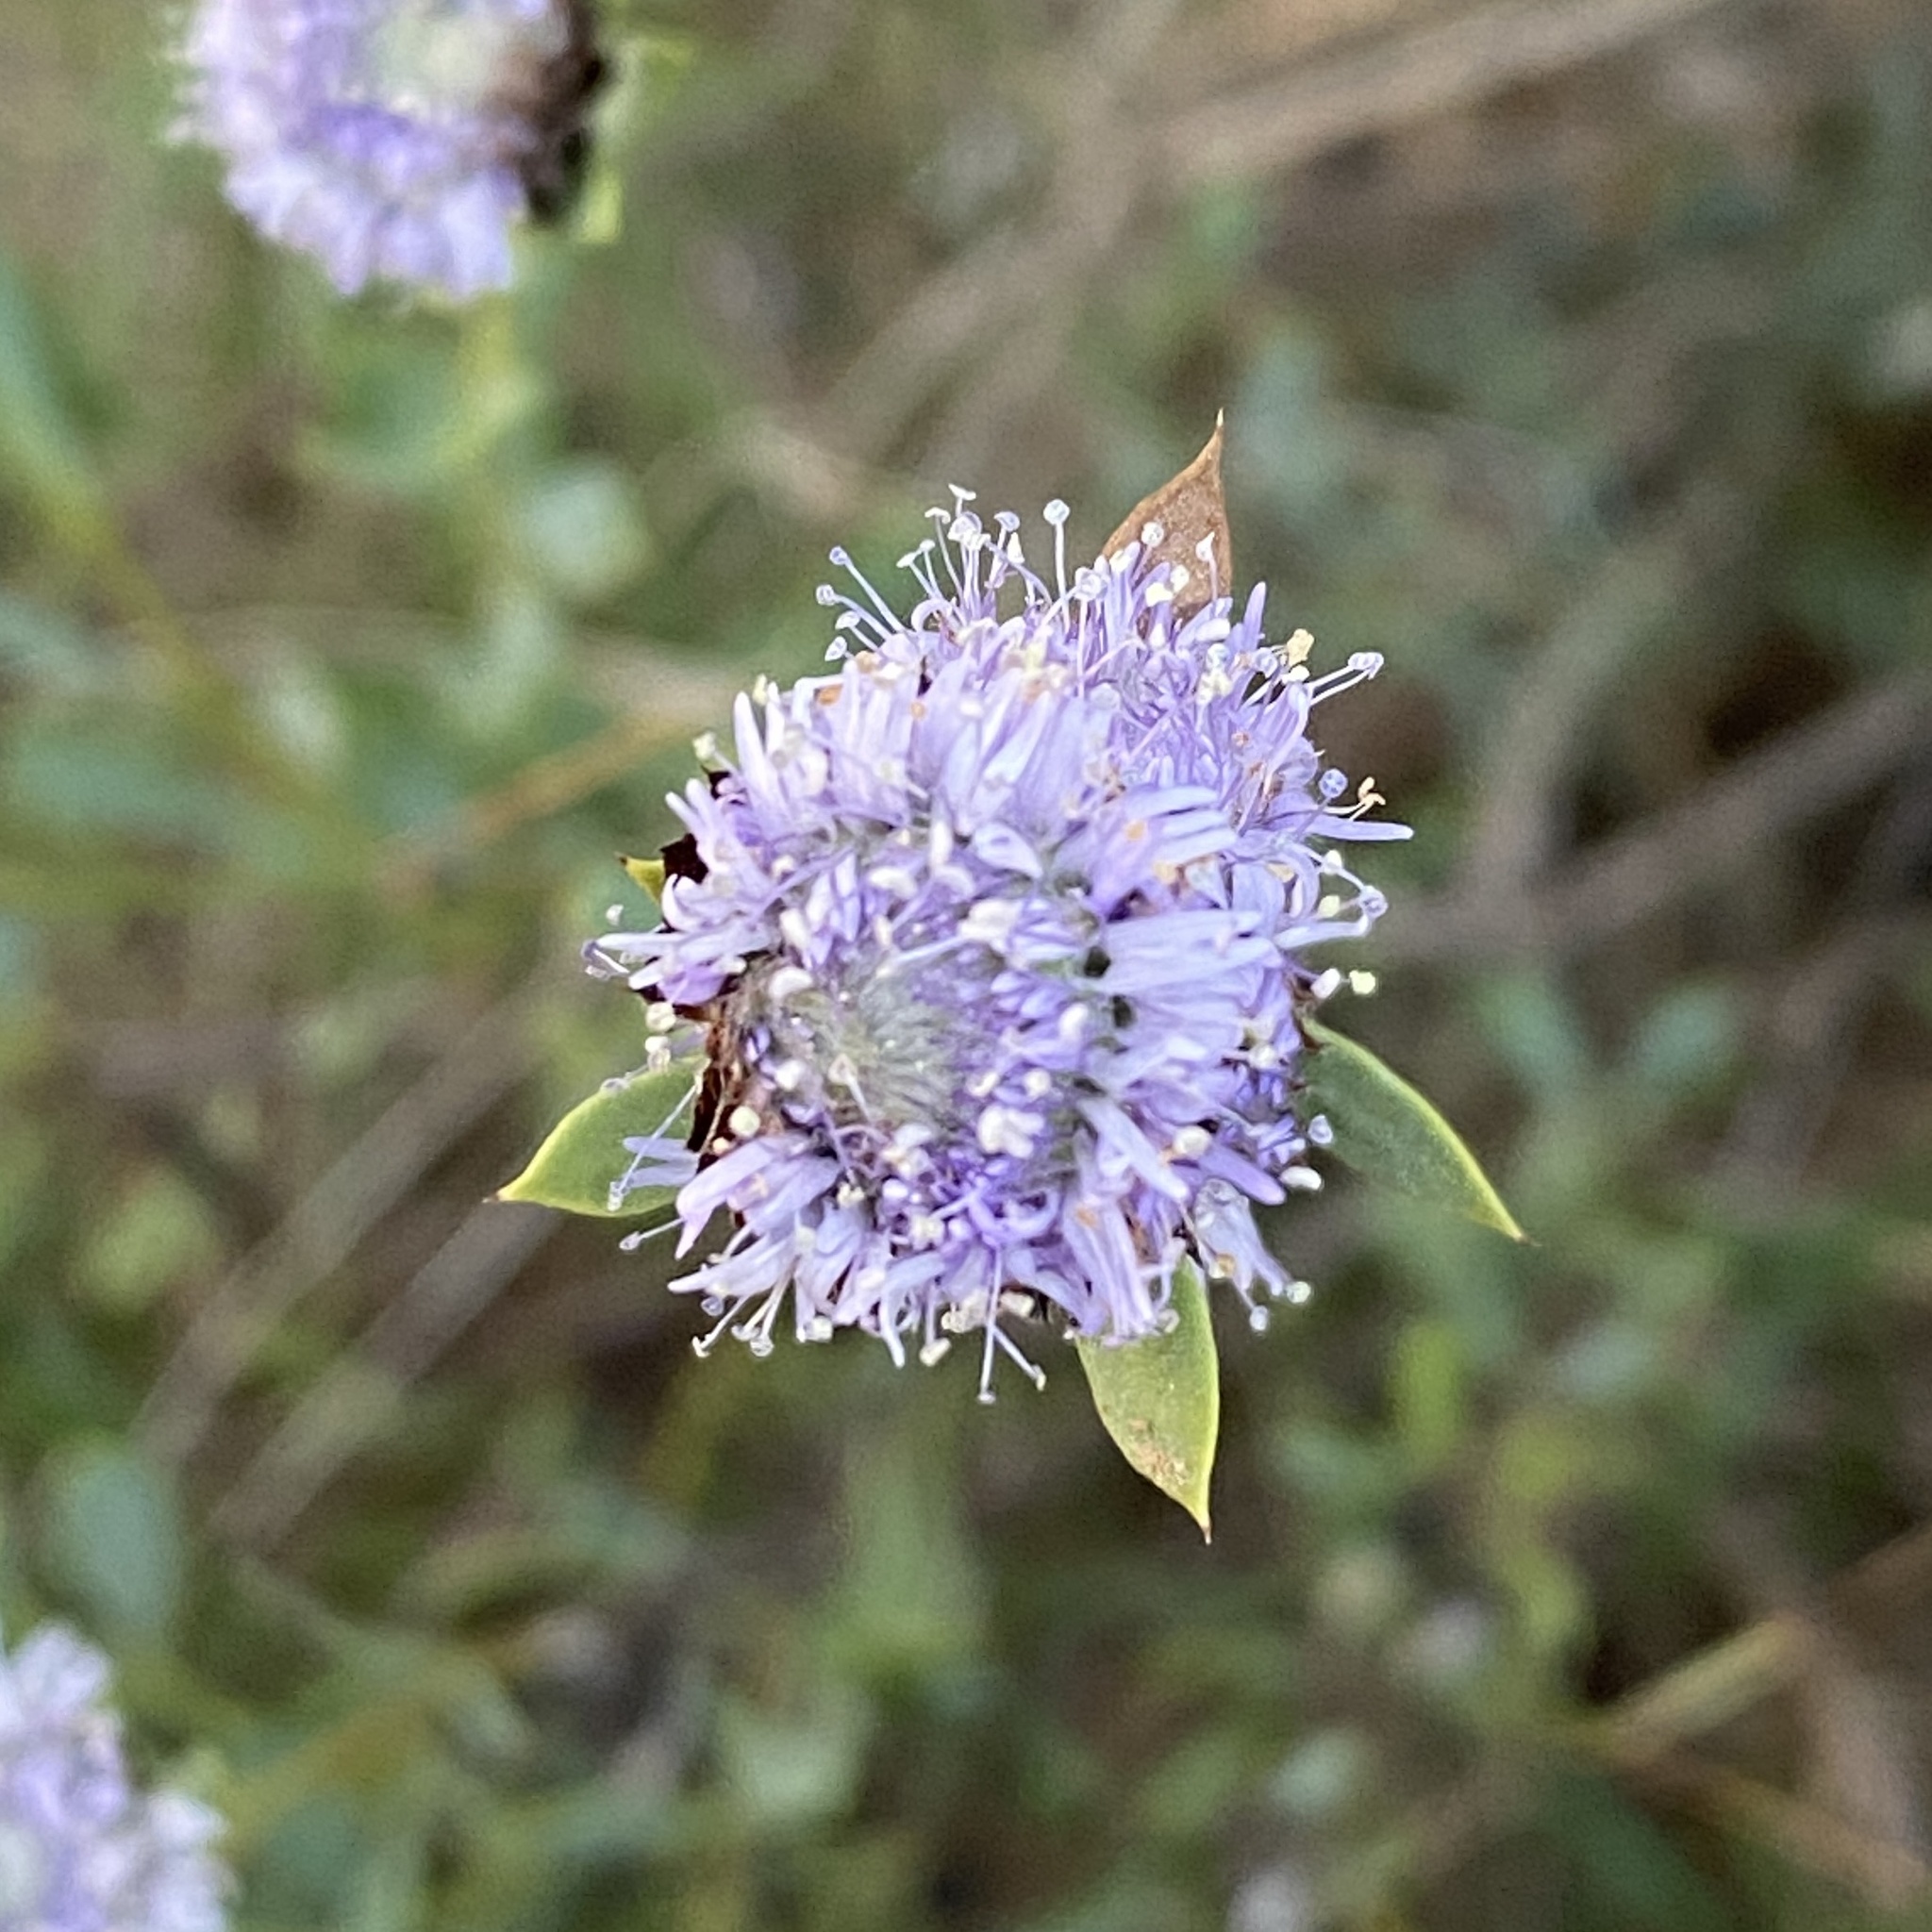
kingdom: Plantae
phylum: Tracheophyta
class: Magnoliopsida
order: Lamiales
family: Plantaginaceae
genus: Globularia
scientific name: Globularia alypum
